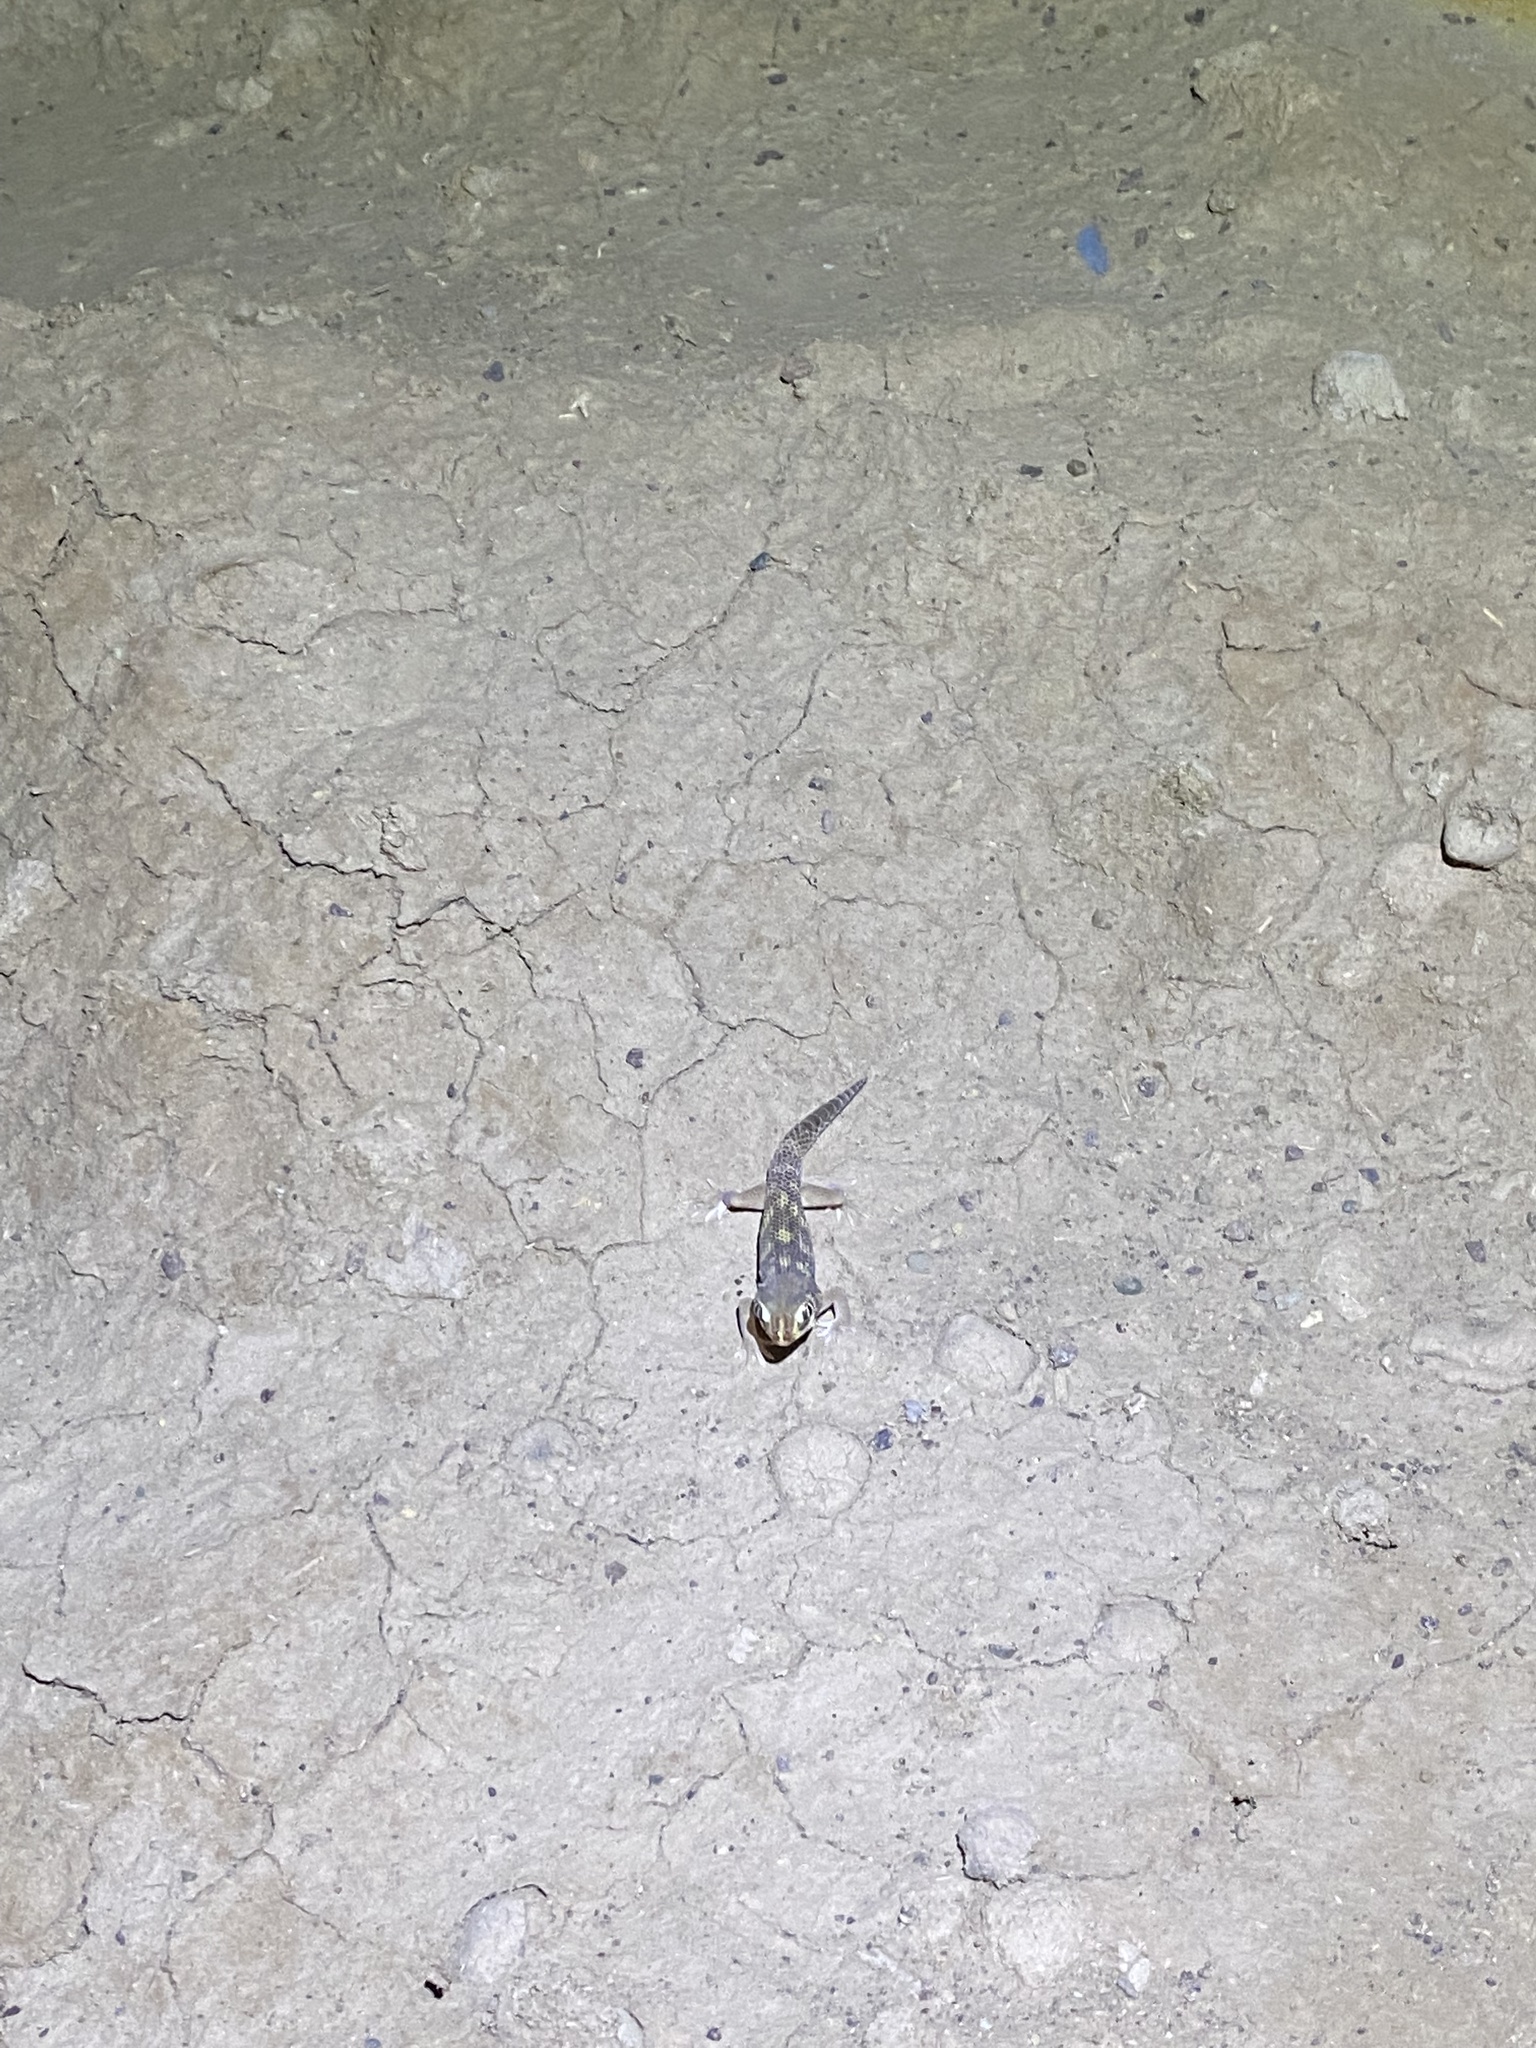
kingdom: Animalia
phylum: Chordata
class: Squamata
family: Sphaerodactylidae
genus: Teratoscincus
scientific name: Teratoscincus bedriagai
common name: Bedriaga's plate-tailed gecko
